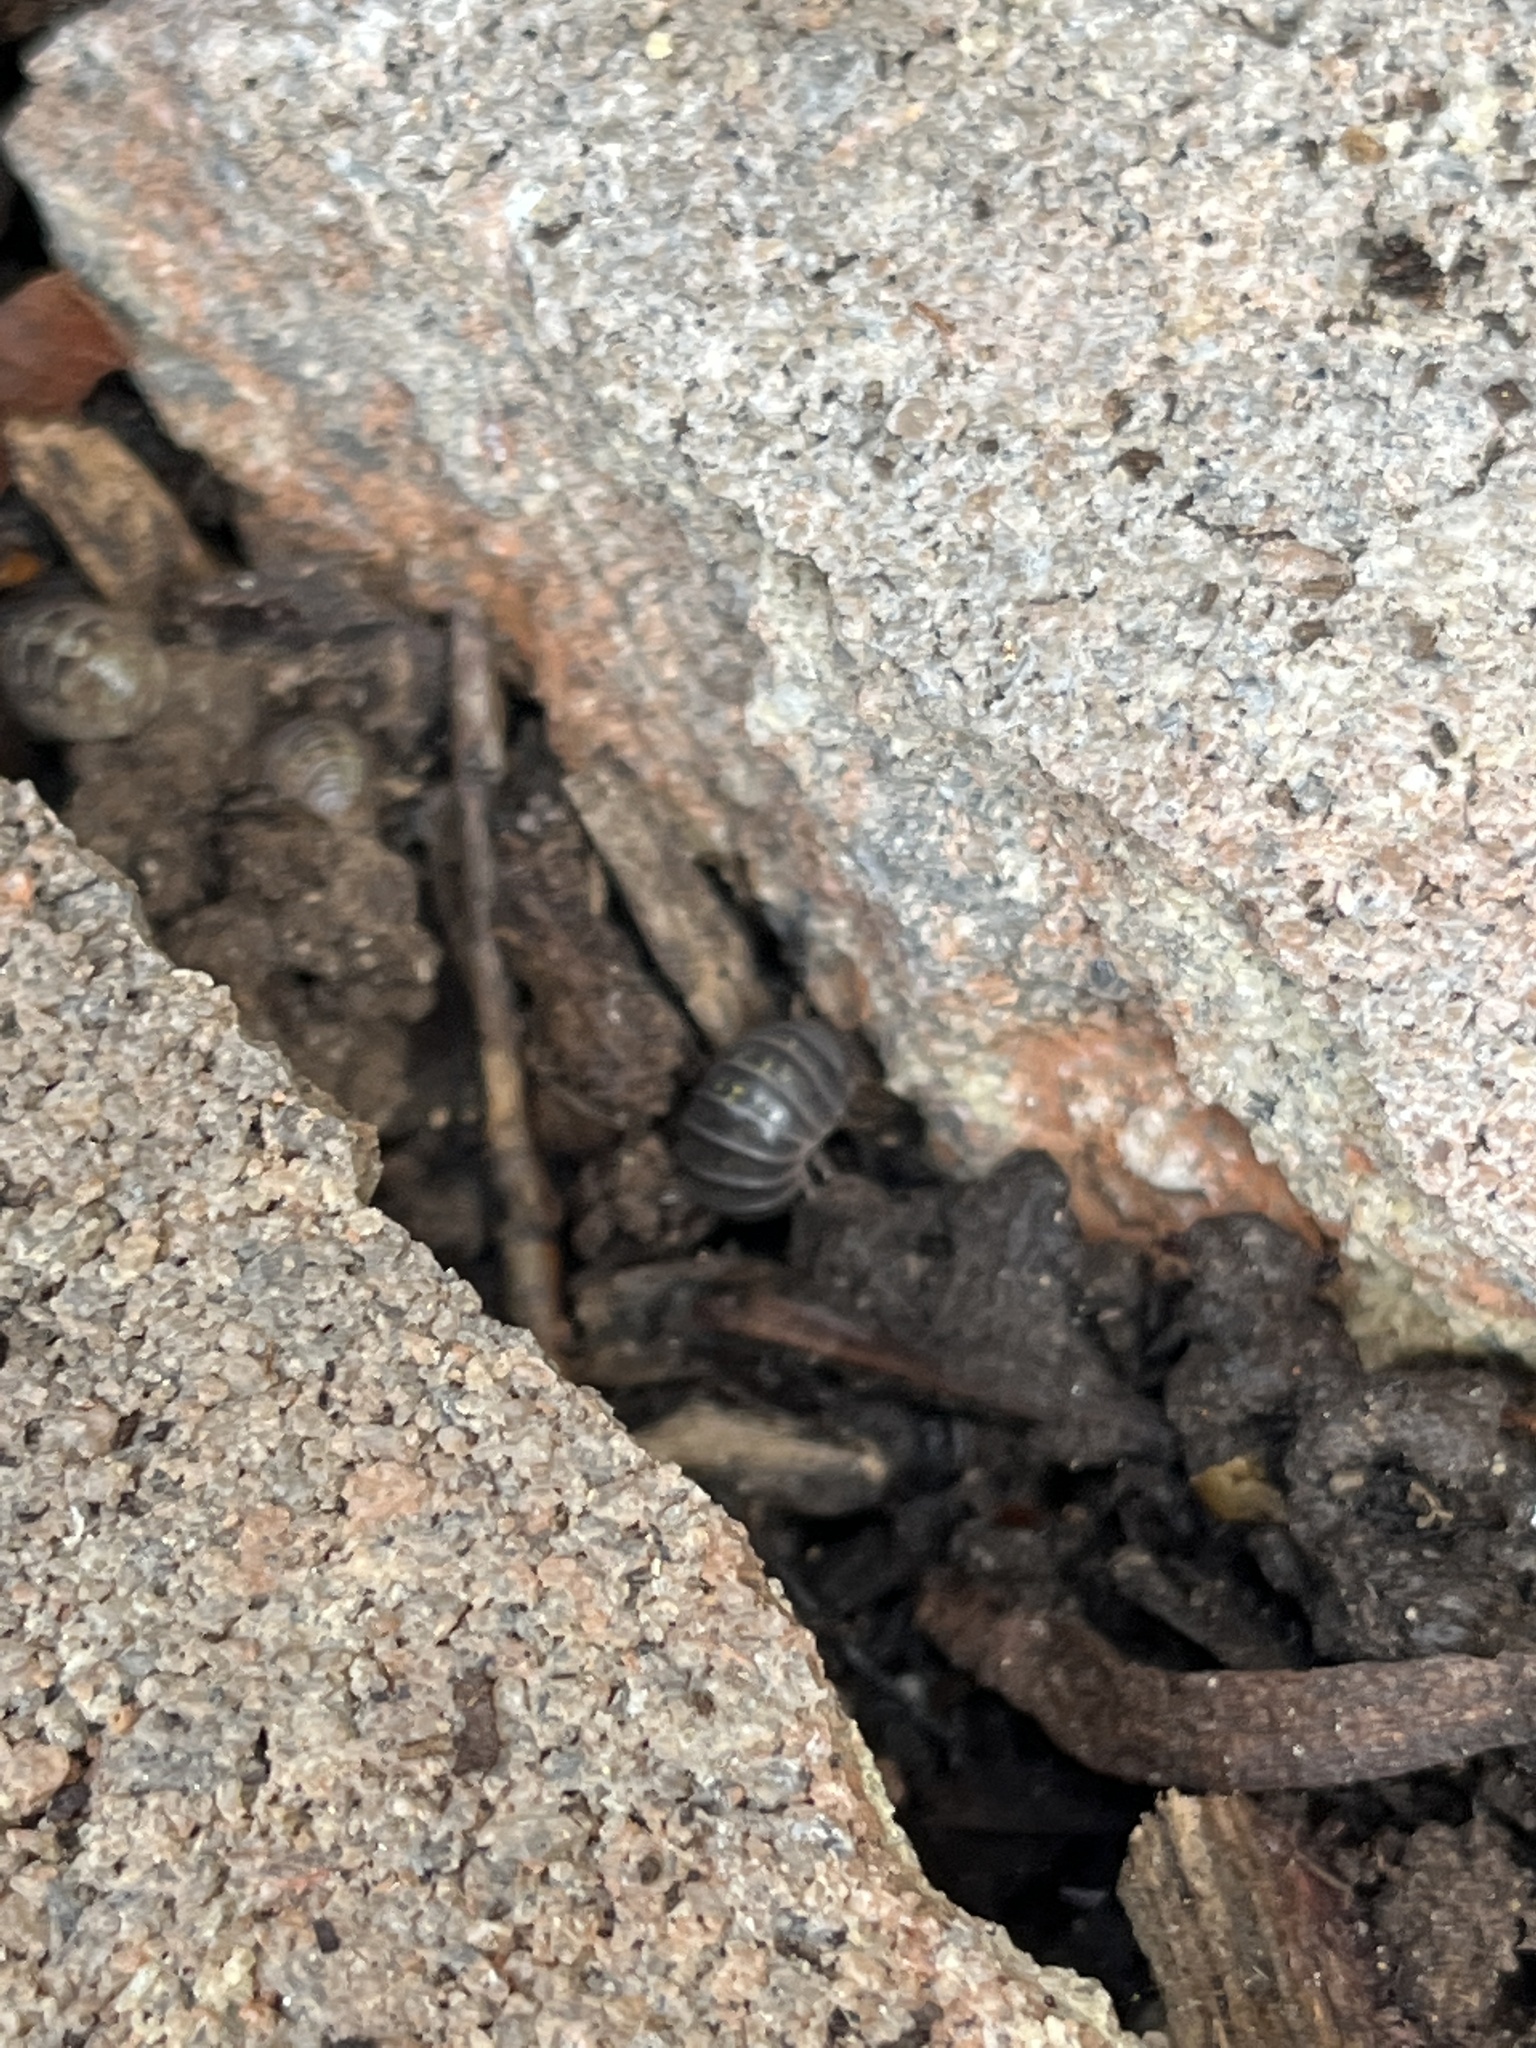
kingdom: Animalia
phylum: Arthropoda
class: Malacostraca
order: Isopoda
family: Armadillidiidae
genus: Armadillidium
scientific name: Armadillidium vulgare
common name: Common pill woodlouse
